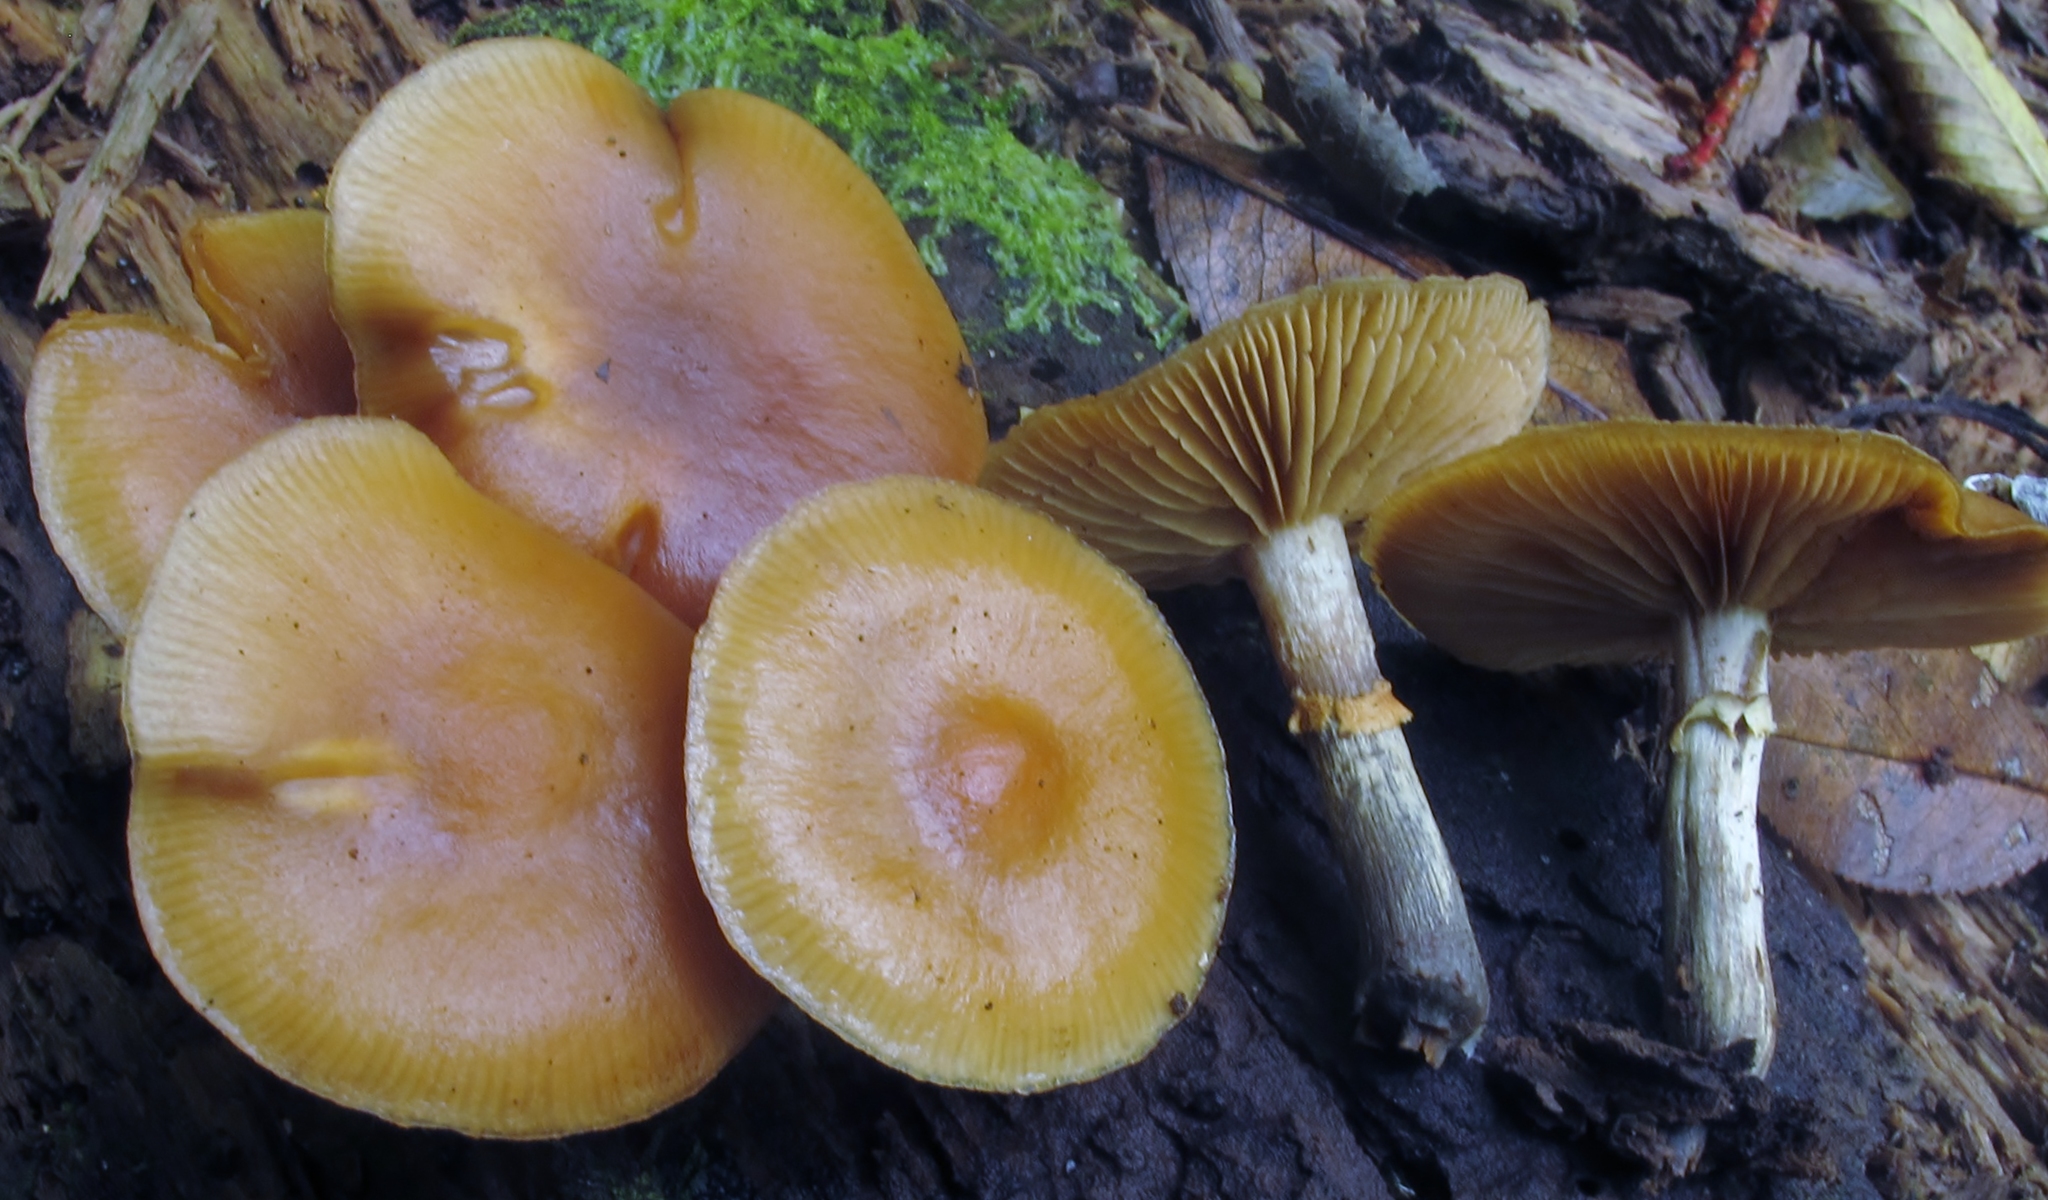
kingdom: Fungi
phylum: Basidiomycota
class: Agaricomycetes
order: Agaricales
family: Hymenogastraceae
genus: Galerina
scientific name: Galerina marginata
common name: Funeral bell
